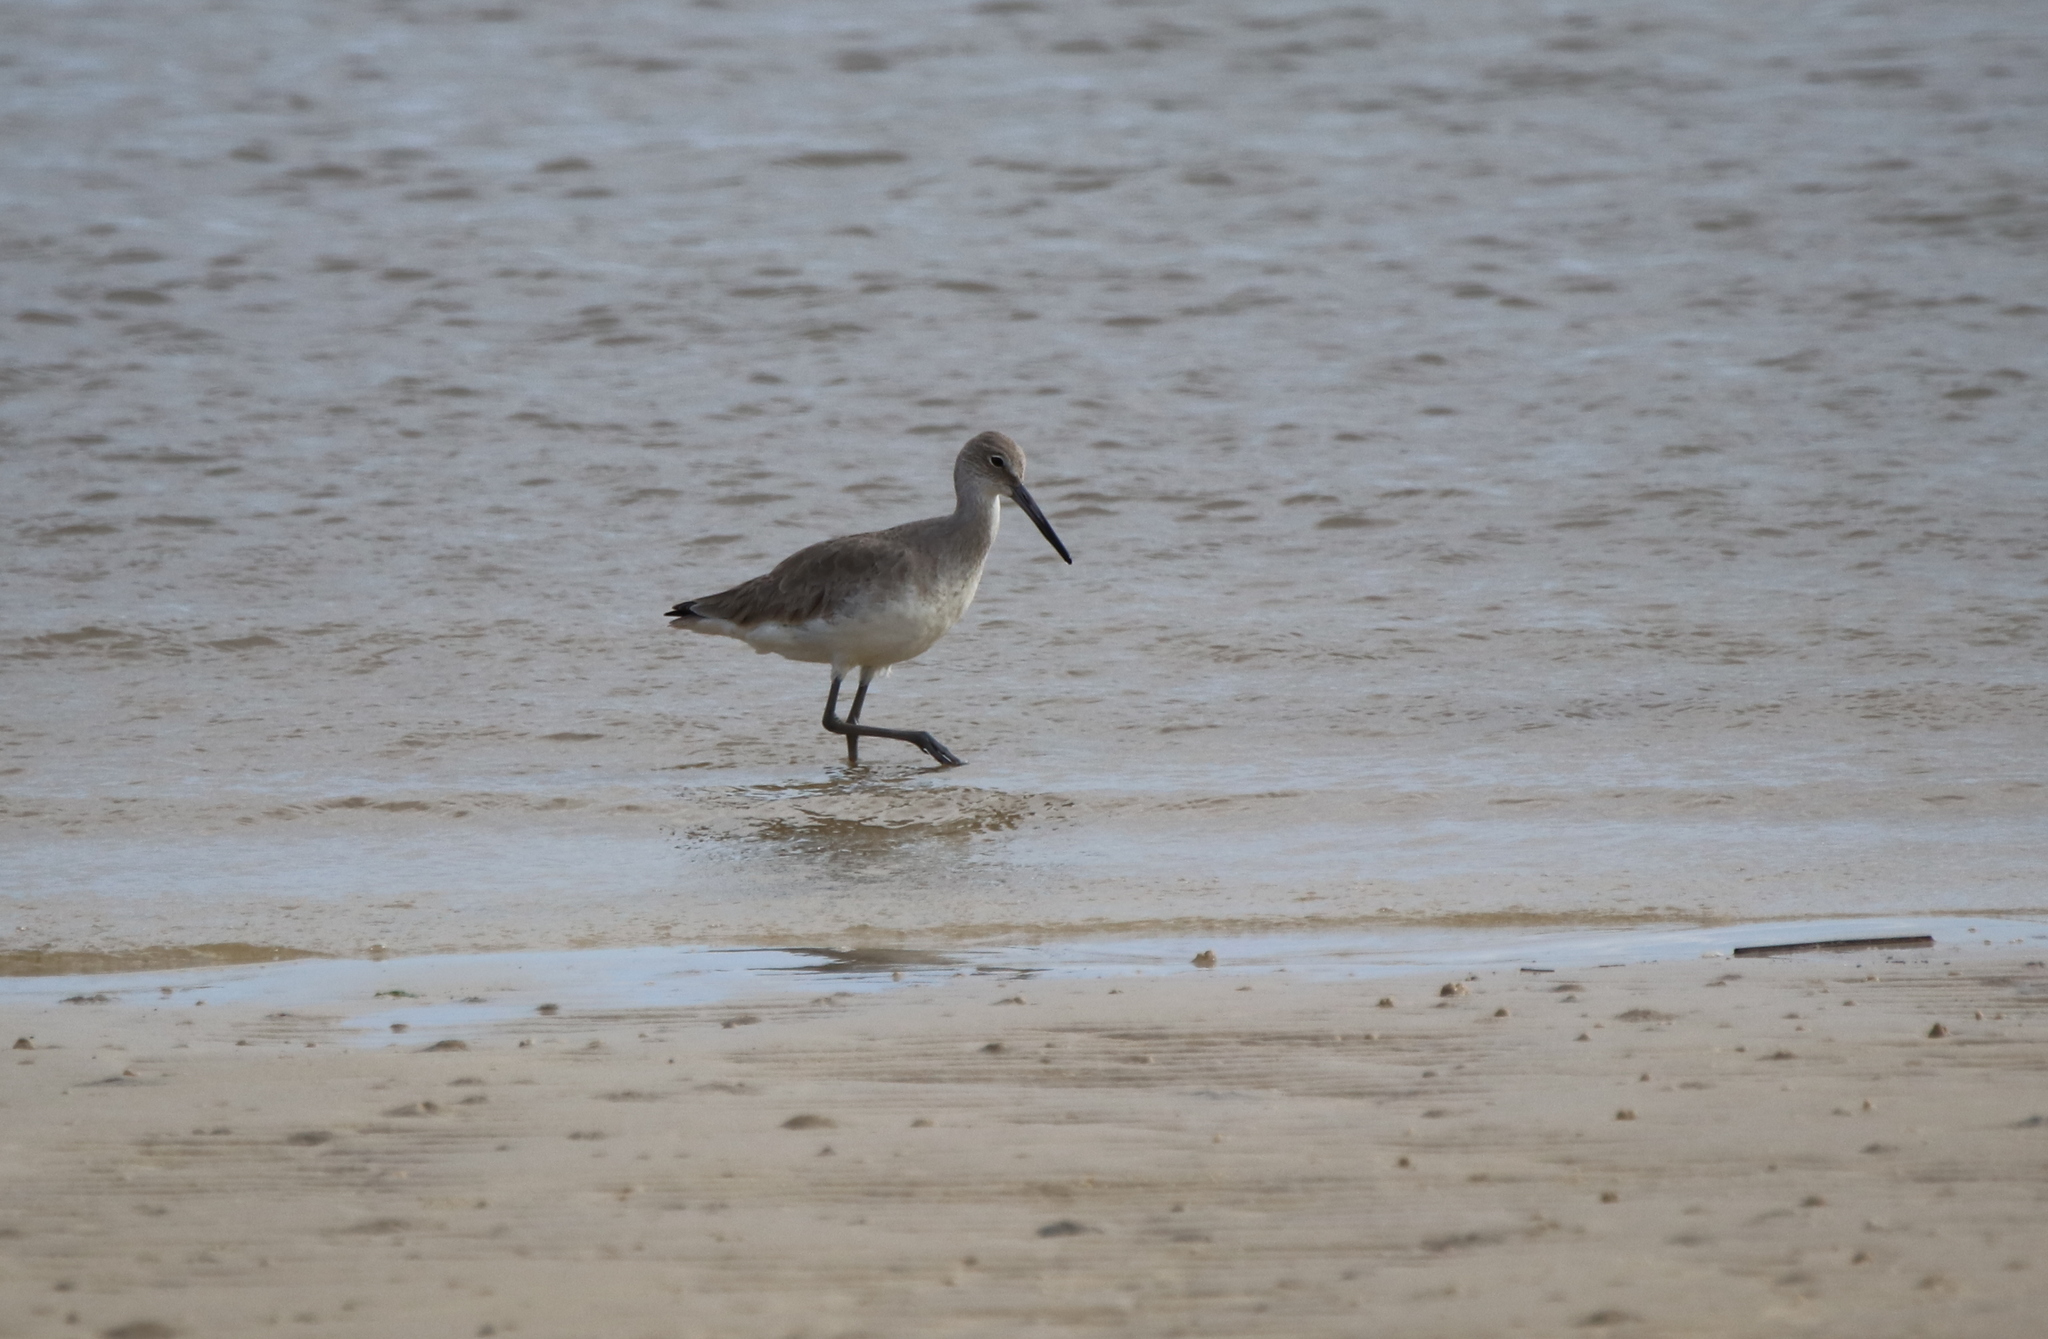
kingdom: Animalia
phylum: Chordata
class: Aves
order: Charadriiformes
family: Scolopacidae
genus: Tringa
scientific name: Tringa semipalmata
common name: Willet
